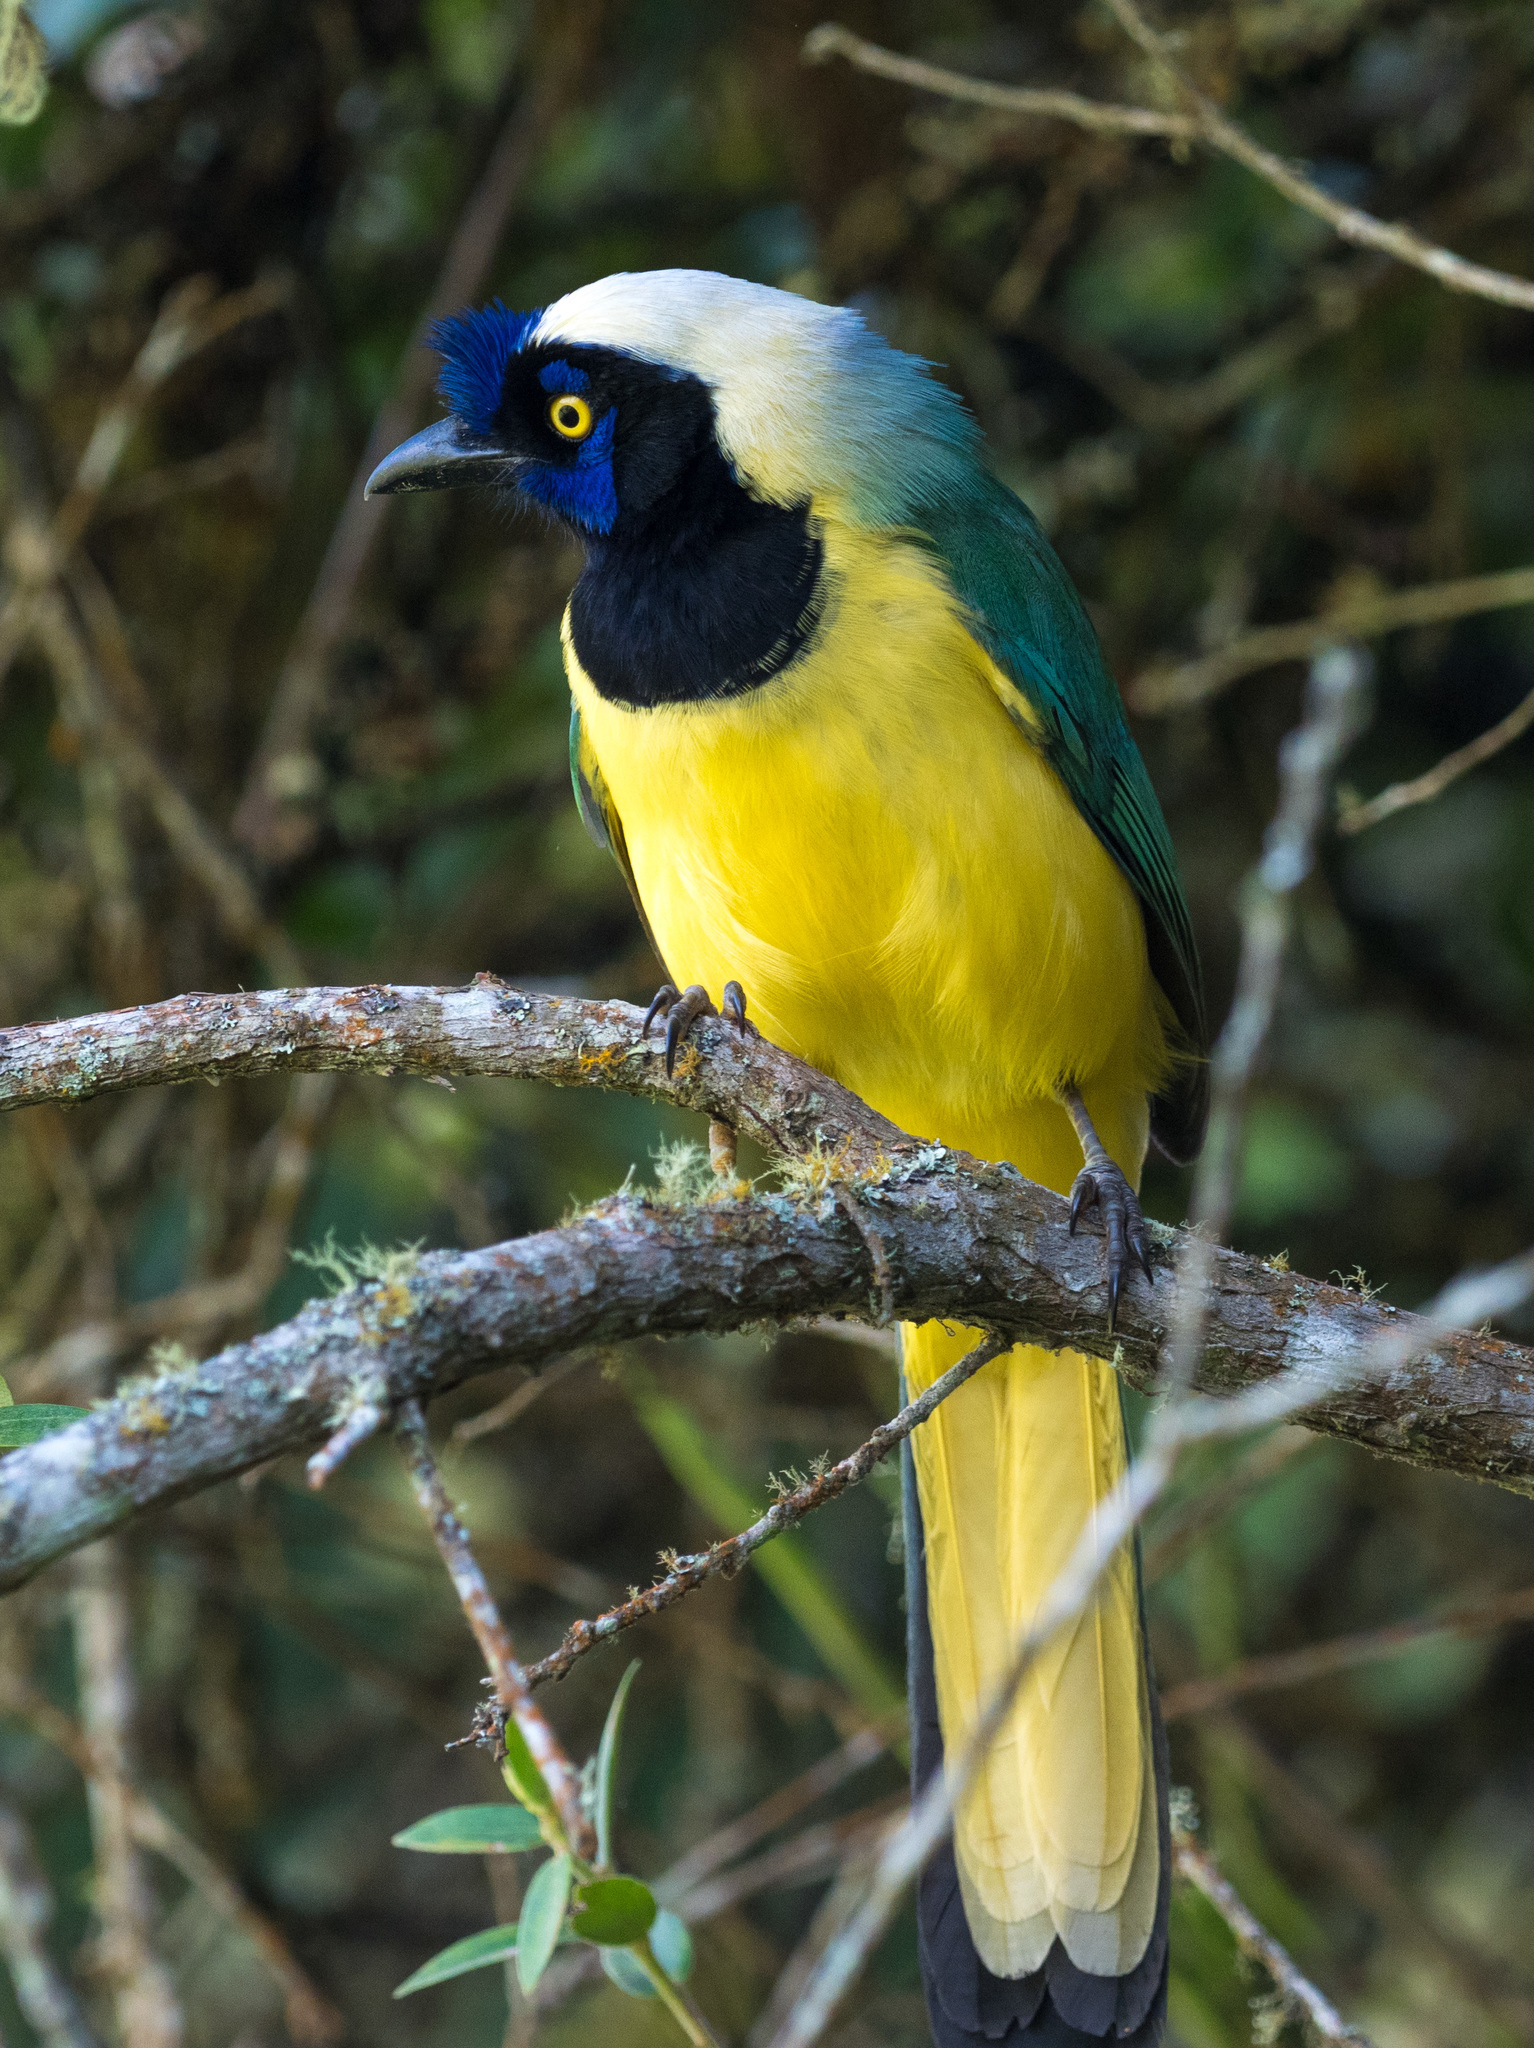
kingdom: Animalia
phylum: Chordata
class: Aves
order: Passeriformes
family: Corvidae
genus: Cyanocorax
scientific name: Cyanocorax yncas
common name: Green jay
